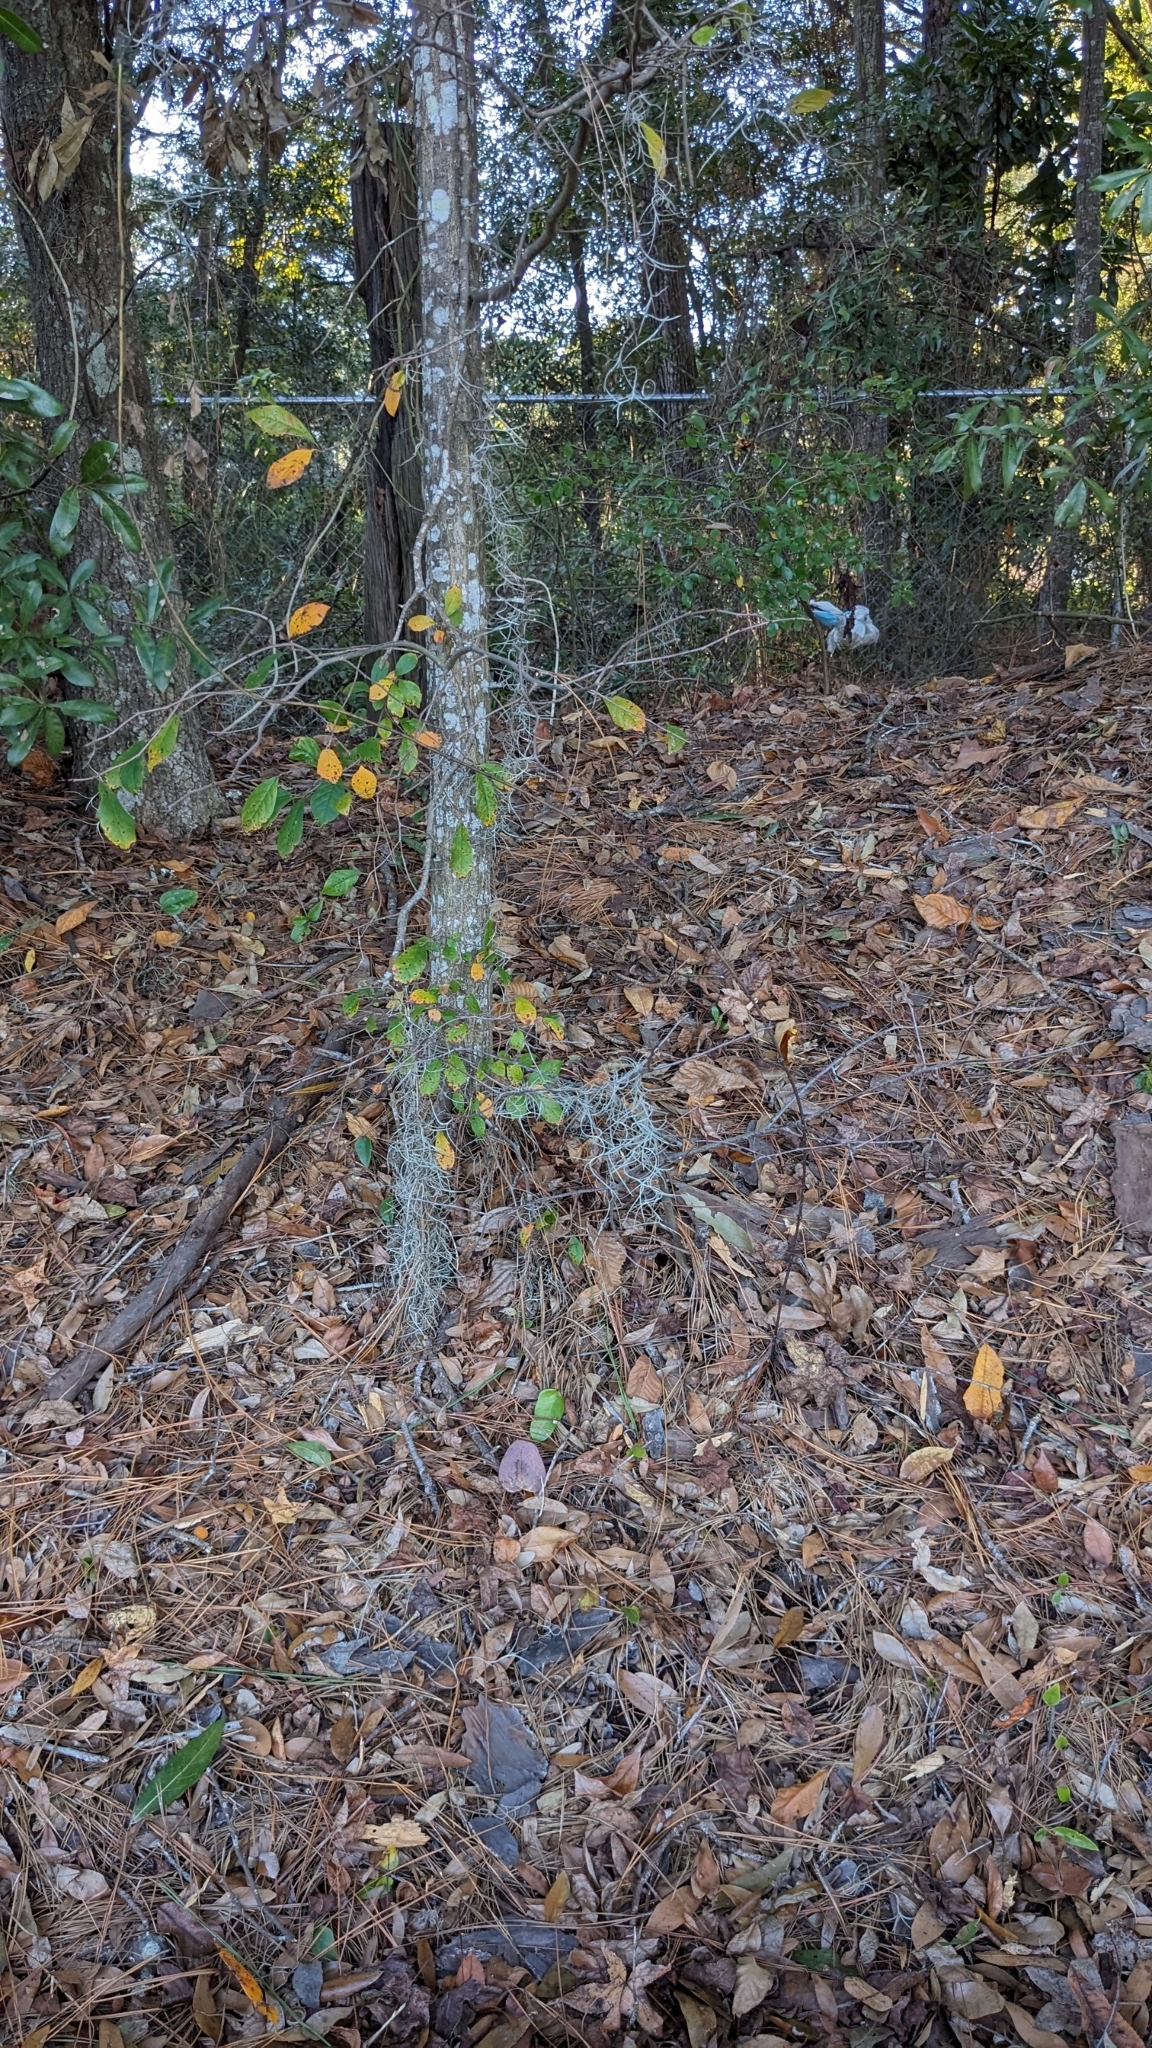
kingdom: Plantae
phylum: Tracheophyta
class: Magnoliopsida
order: Ericales
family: Ebenaceae
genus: Diospyros
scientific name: Diospyros virginiana
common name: Persimmon
